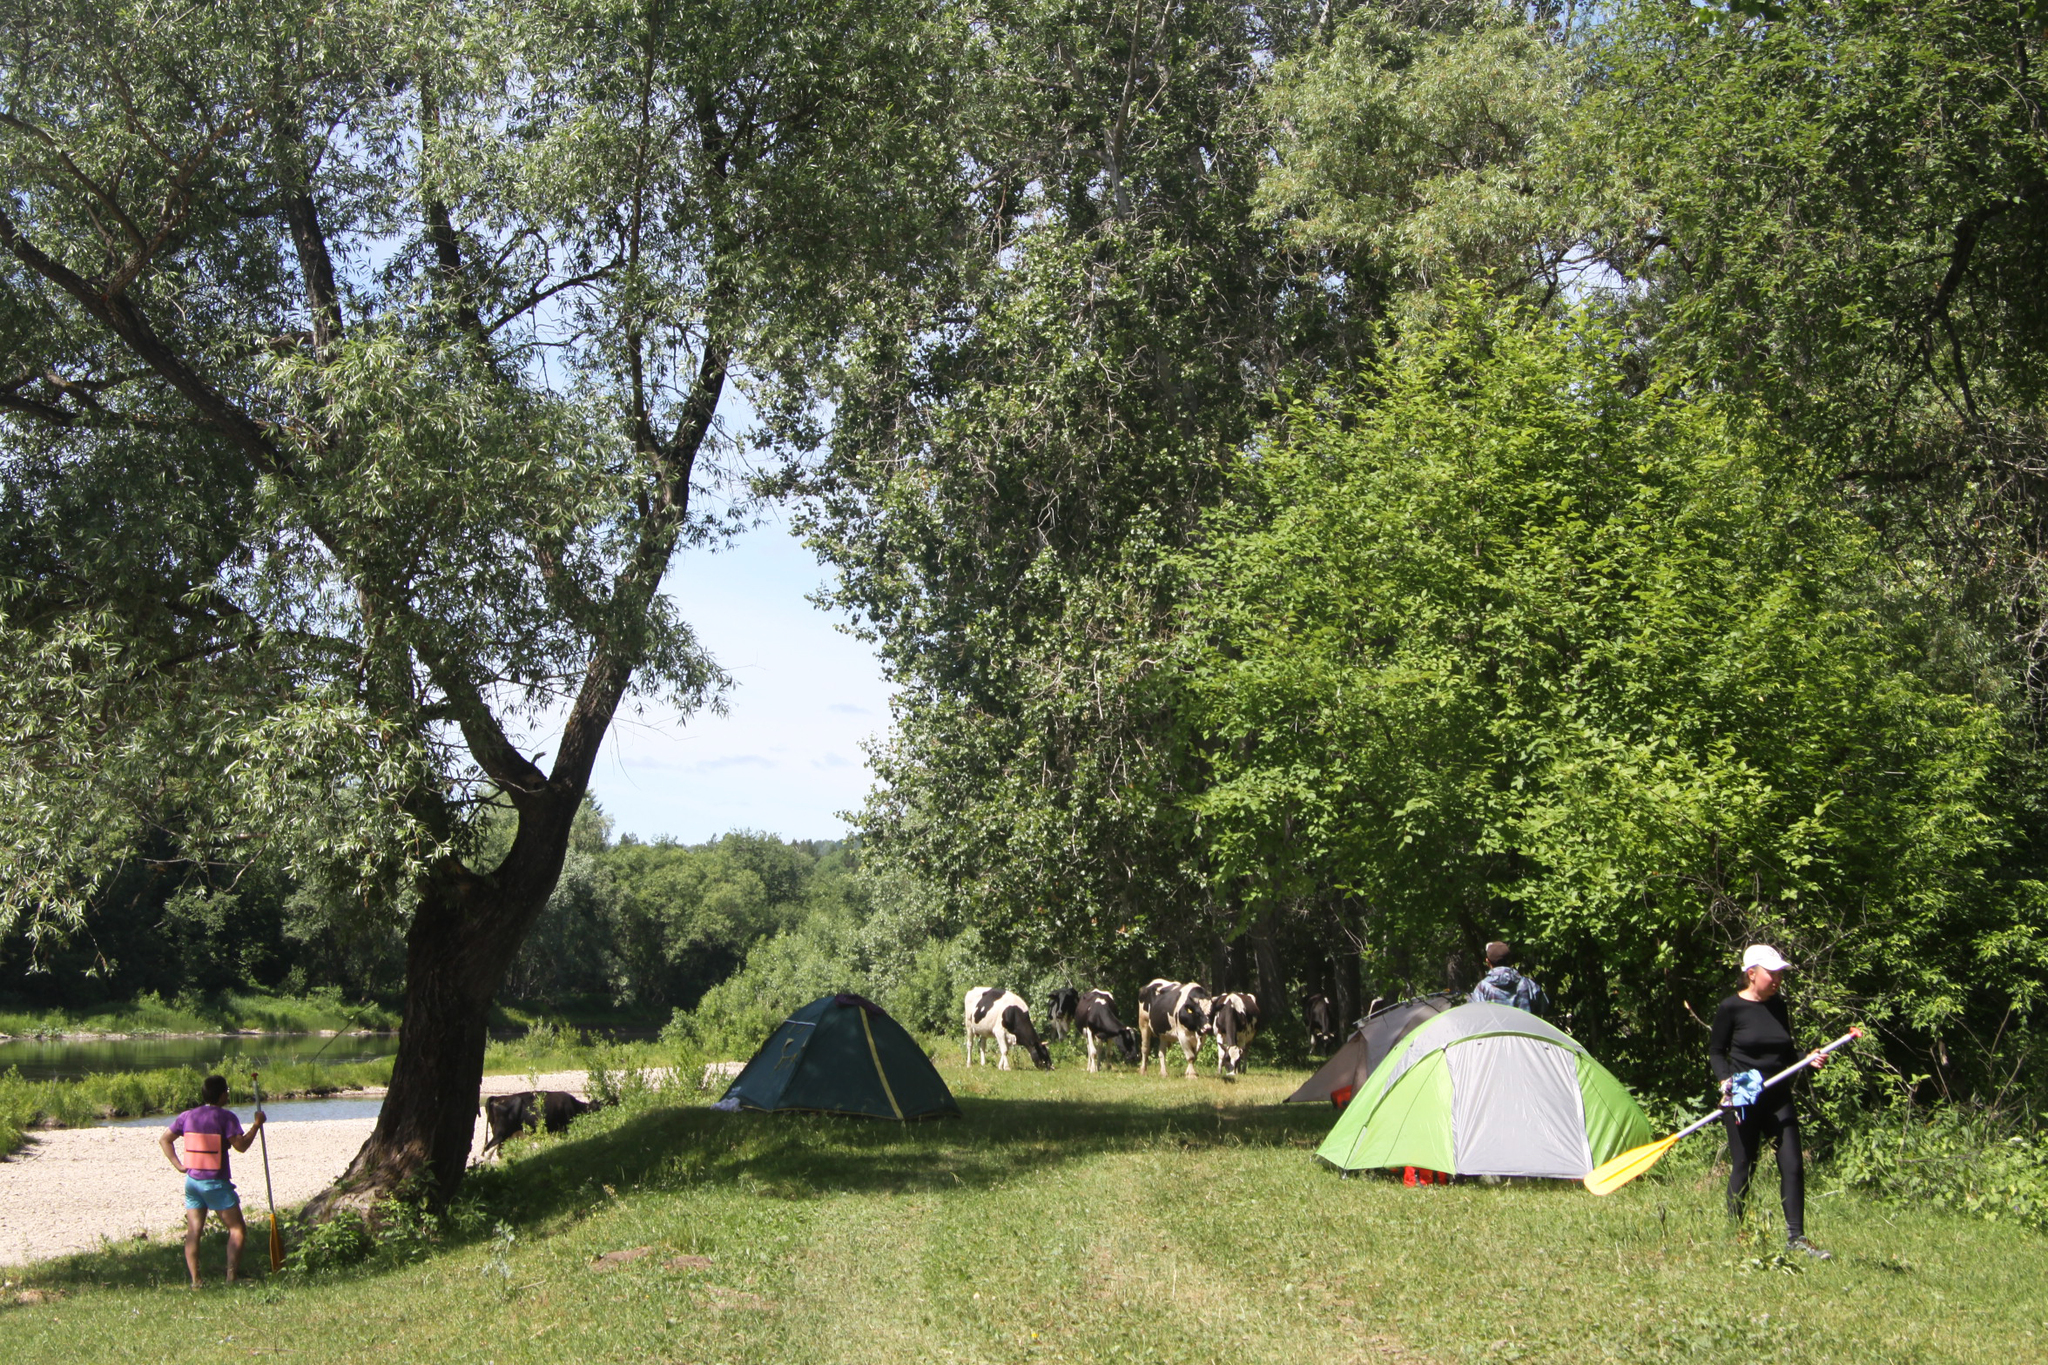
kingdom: Animalia
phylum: Chordata
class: Mammalia
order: Artiodactyla
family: Bovidae
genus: Bos
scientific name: Bos taurus
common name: Domesticated cattle
